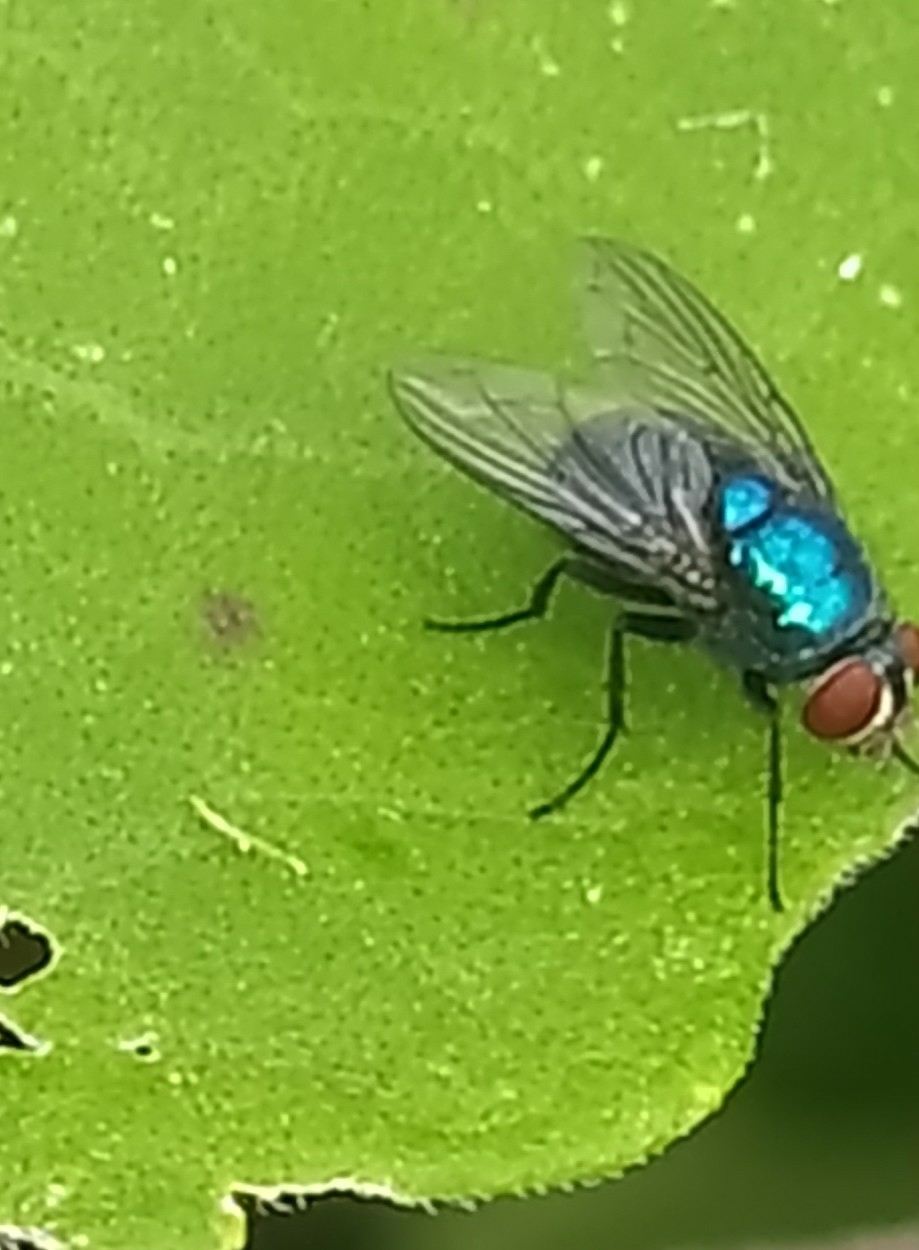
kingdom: Animalia
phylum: Arthropoda
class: Insecta
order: Diptera
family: Calliphoridae
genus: Lucilia
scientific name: Lucilia eximia
